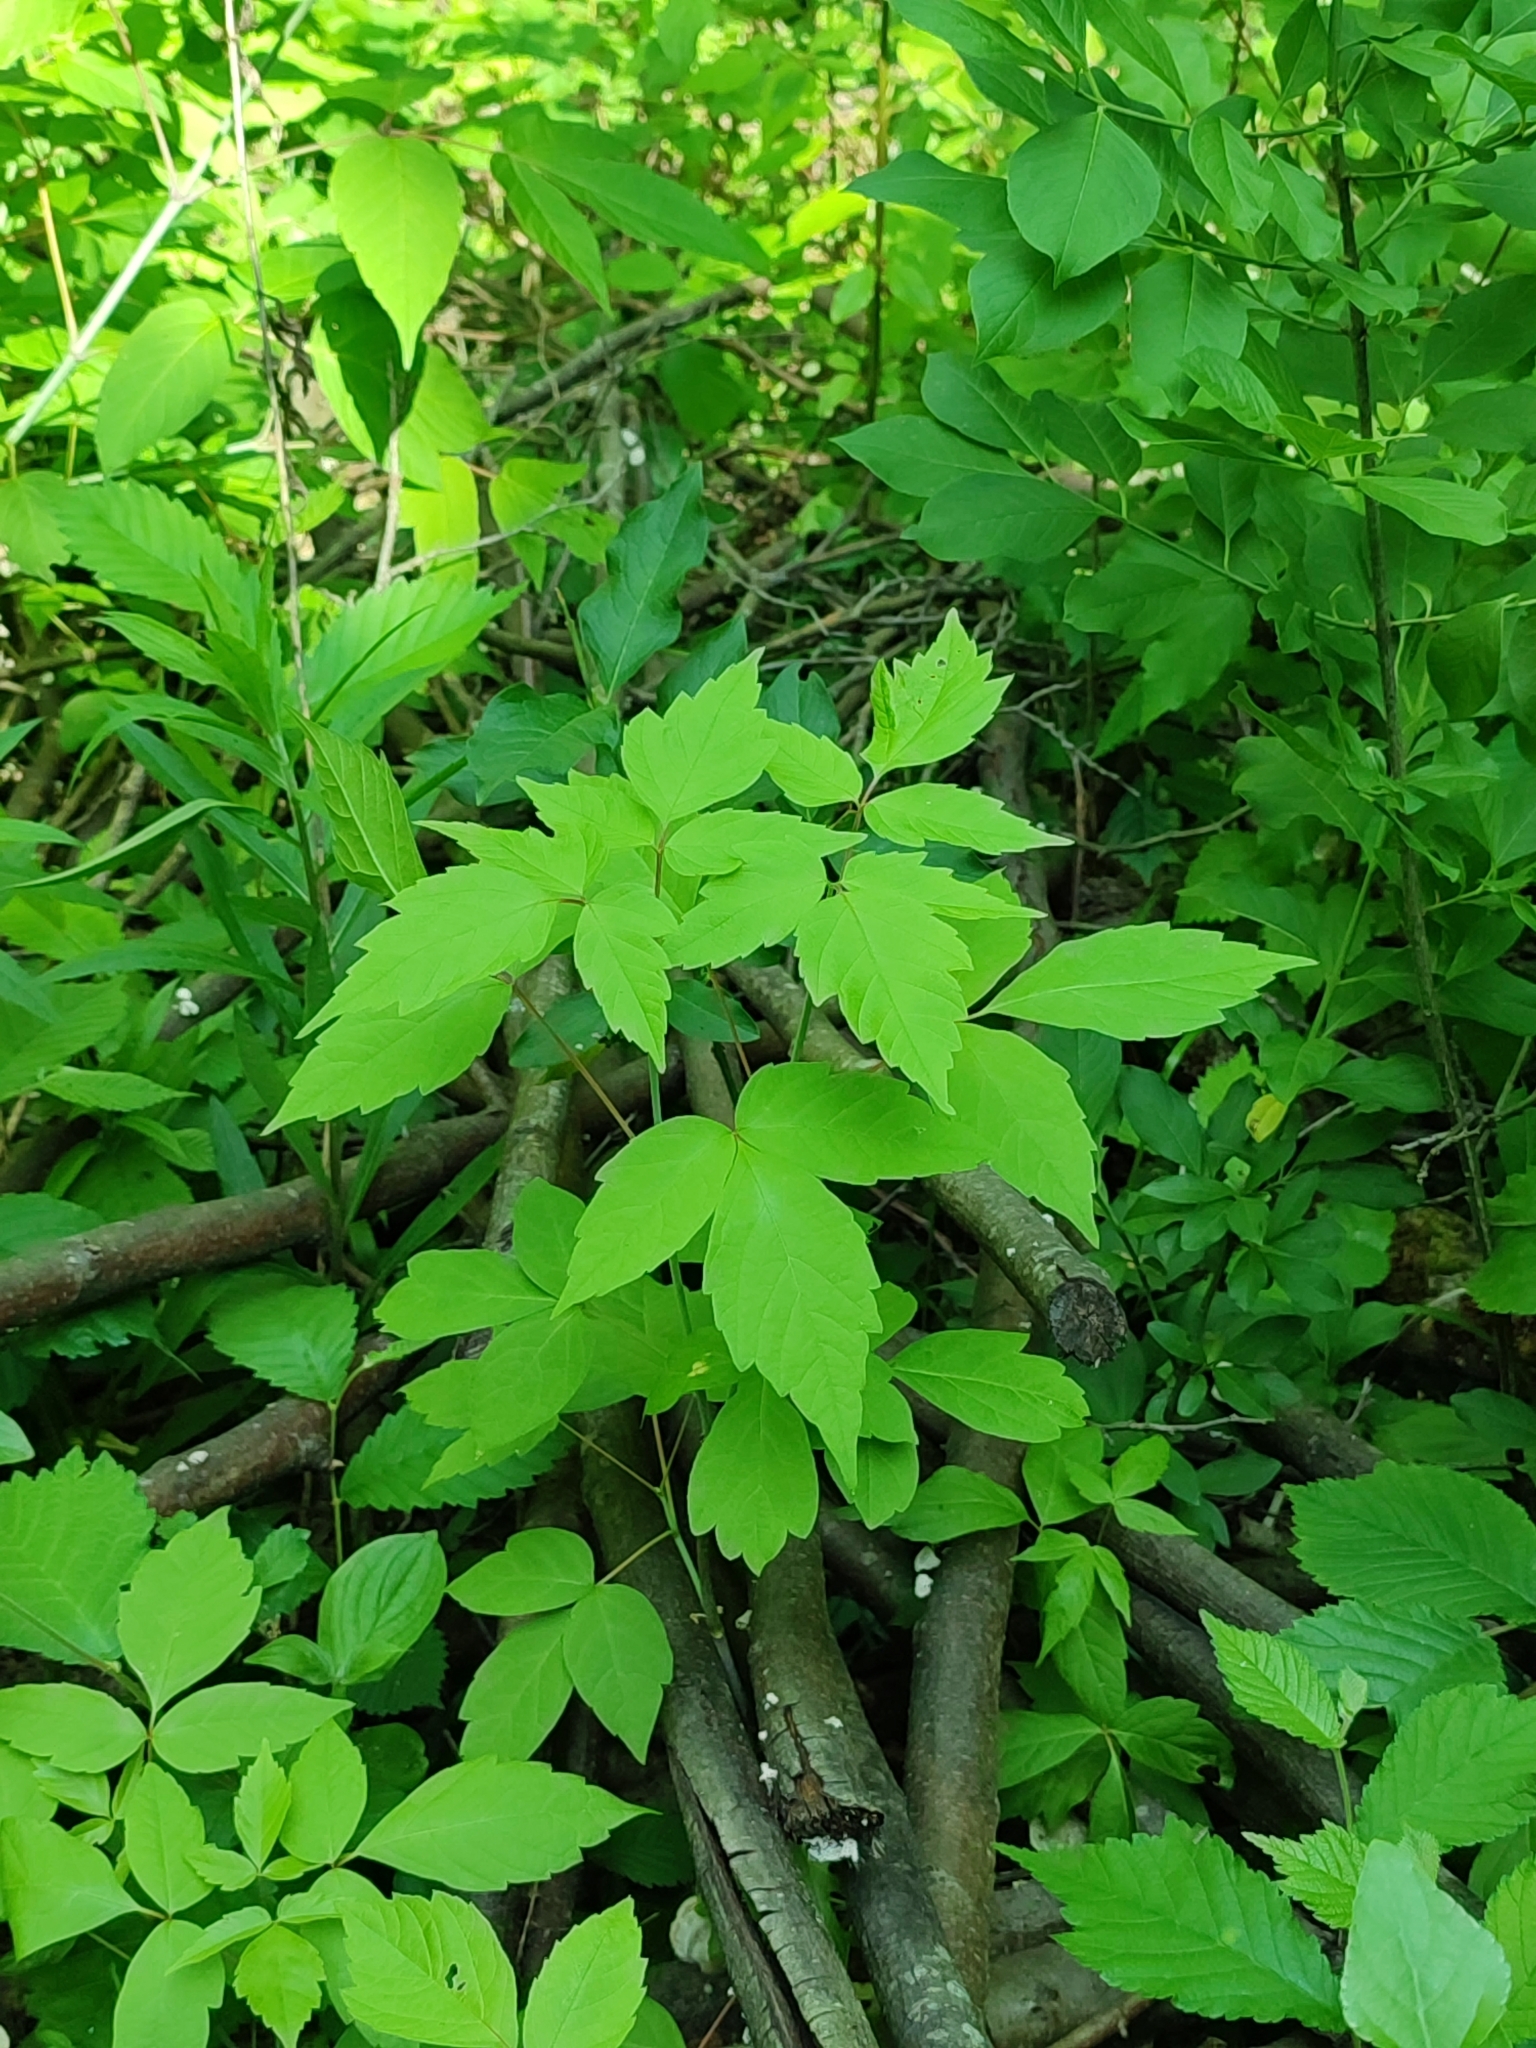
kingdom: Plantae
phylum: Tracheophyta
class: Magnoliopsida
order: Sapindales
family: Sapindaceae
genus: Acer
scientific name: Acer negundo
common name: Ashleaf maple
